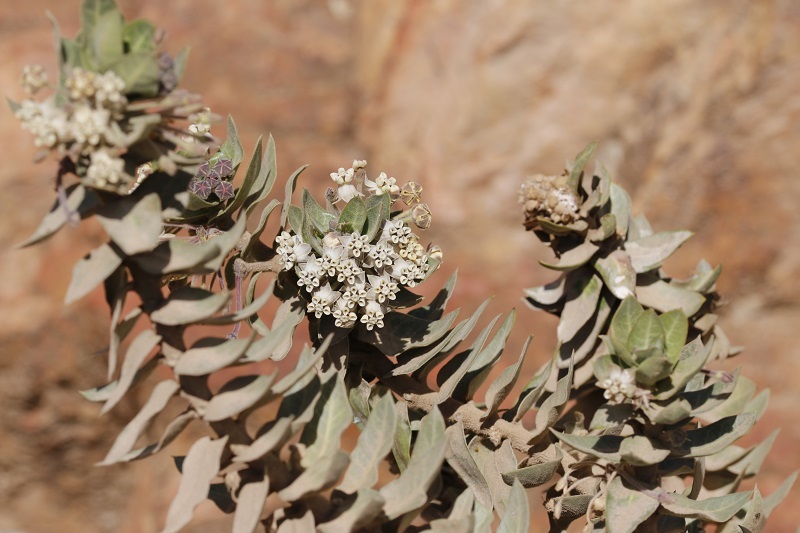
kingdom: Plantae
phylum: Tracheophyta
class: Magnoliopsida
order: Gentianales
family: Apocynaceae
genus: Gomphocarpus
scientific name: Gomphocarpus cancellatus
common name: Wild cotton
